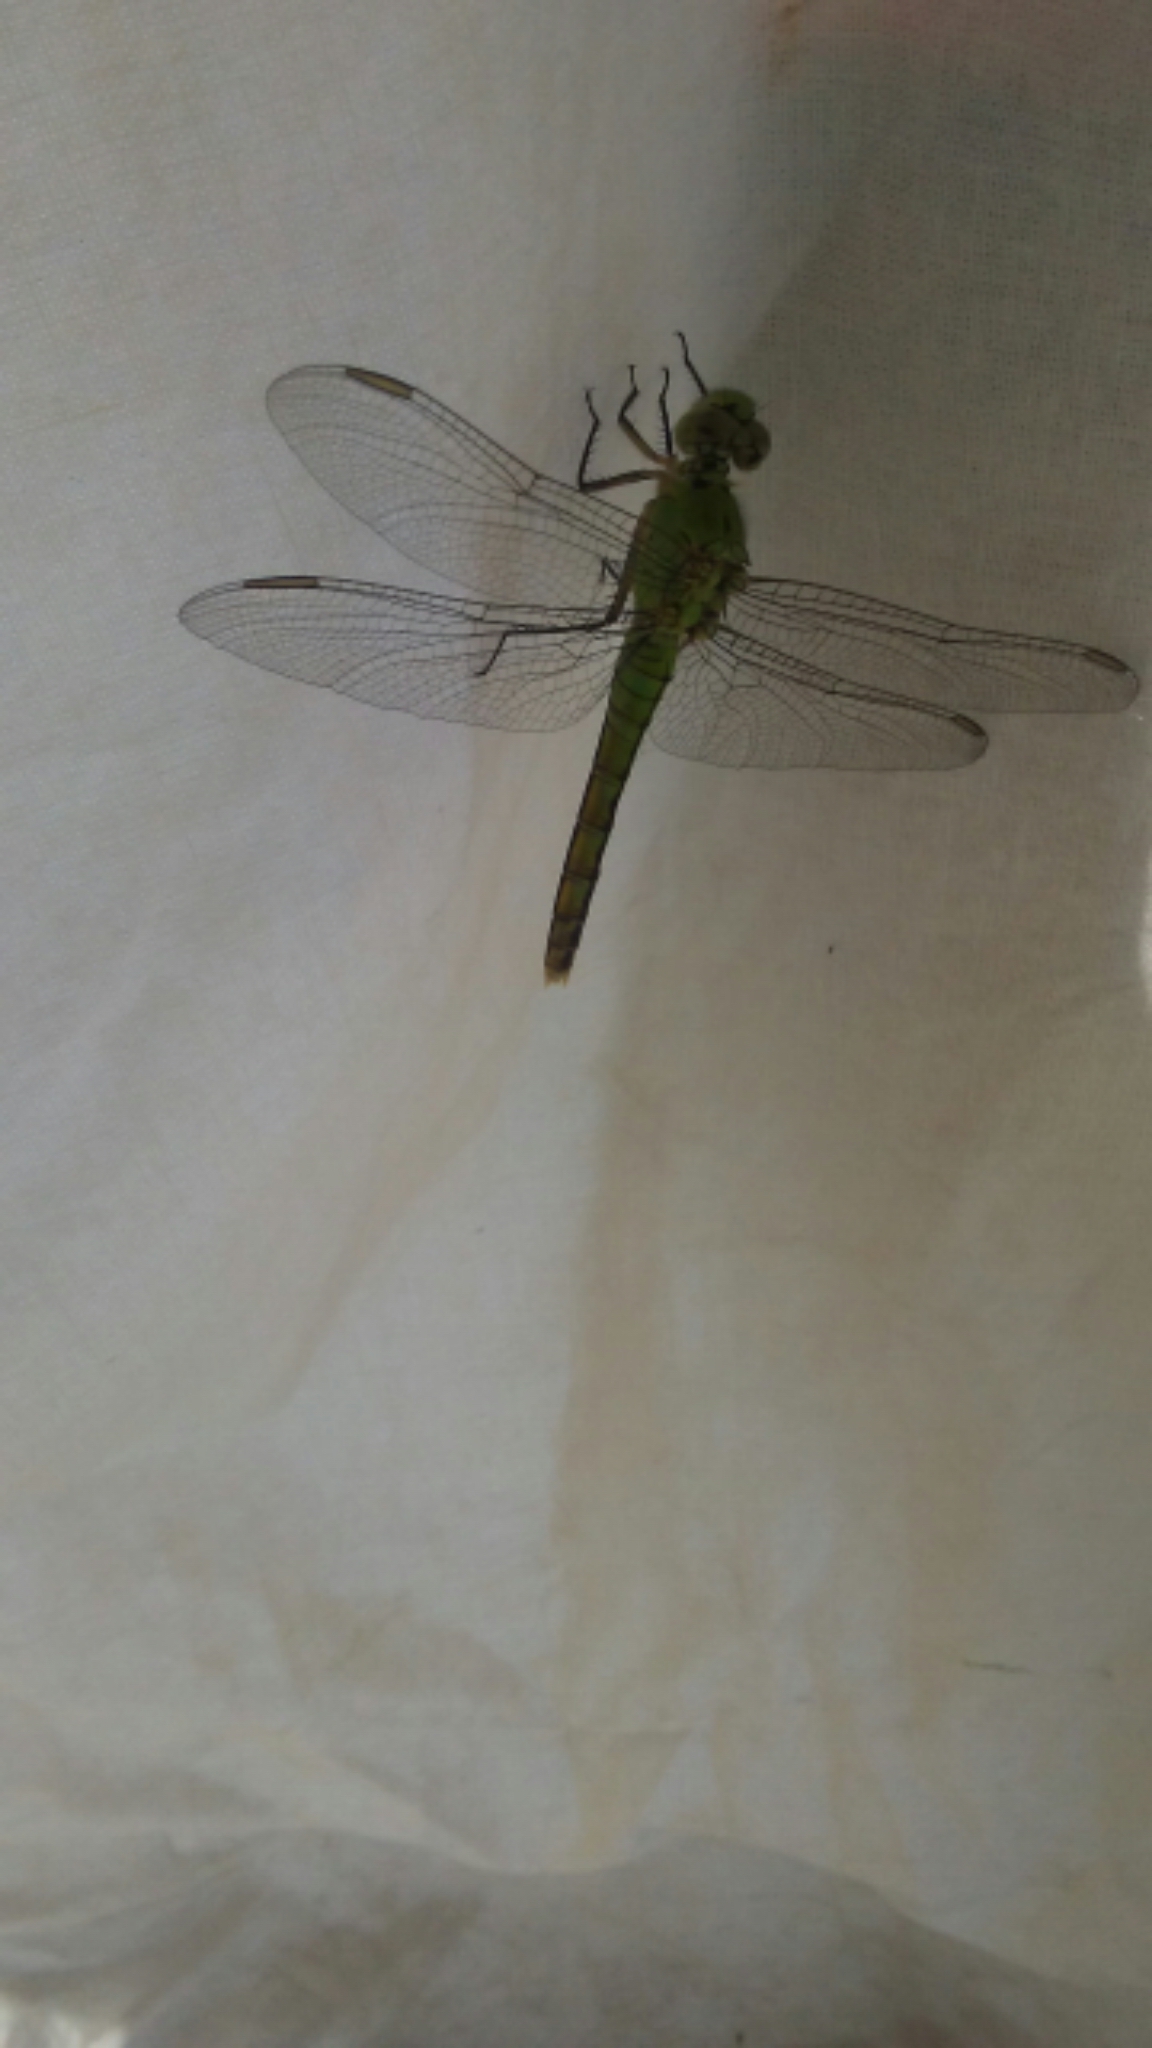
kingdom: Animalia
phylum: Arthropoda
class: Insecta
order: Odonata
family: Libellulidae
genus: Erythemis
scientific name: Erythemis collocata
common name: Western pondhawk
